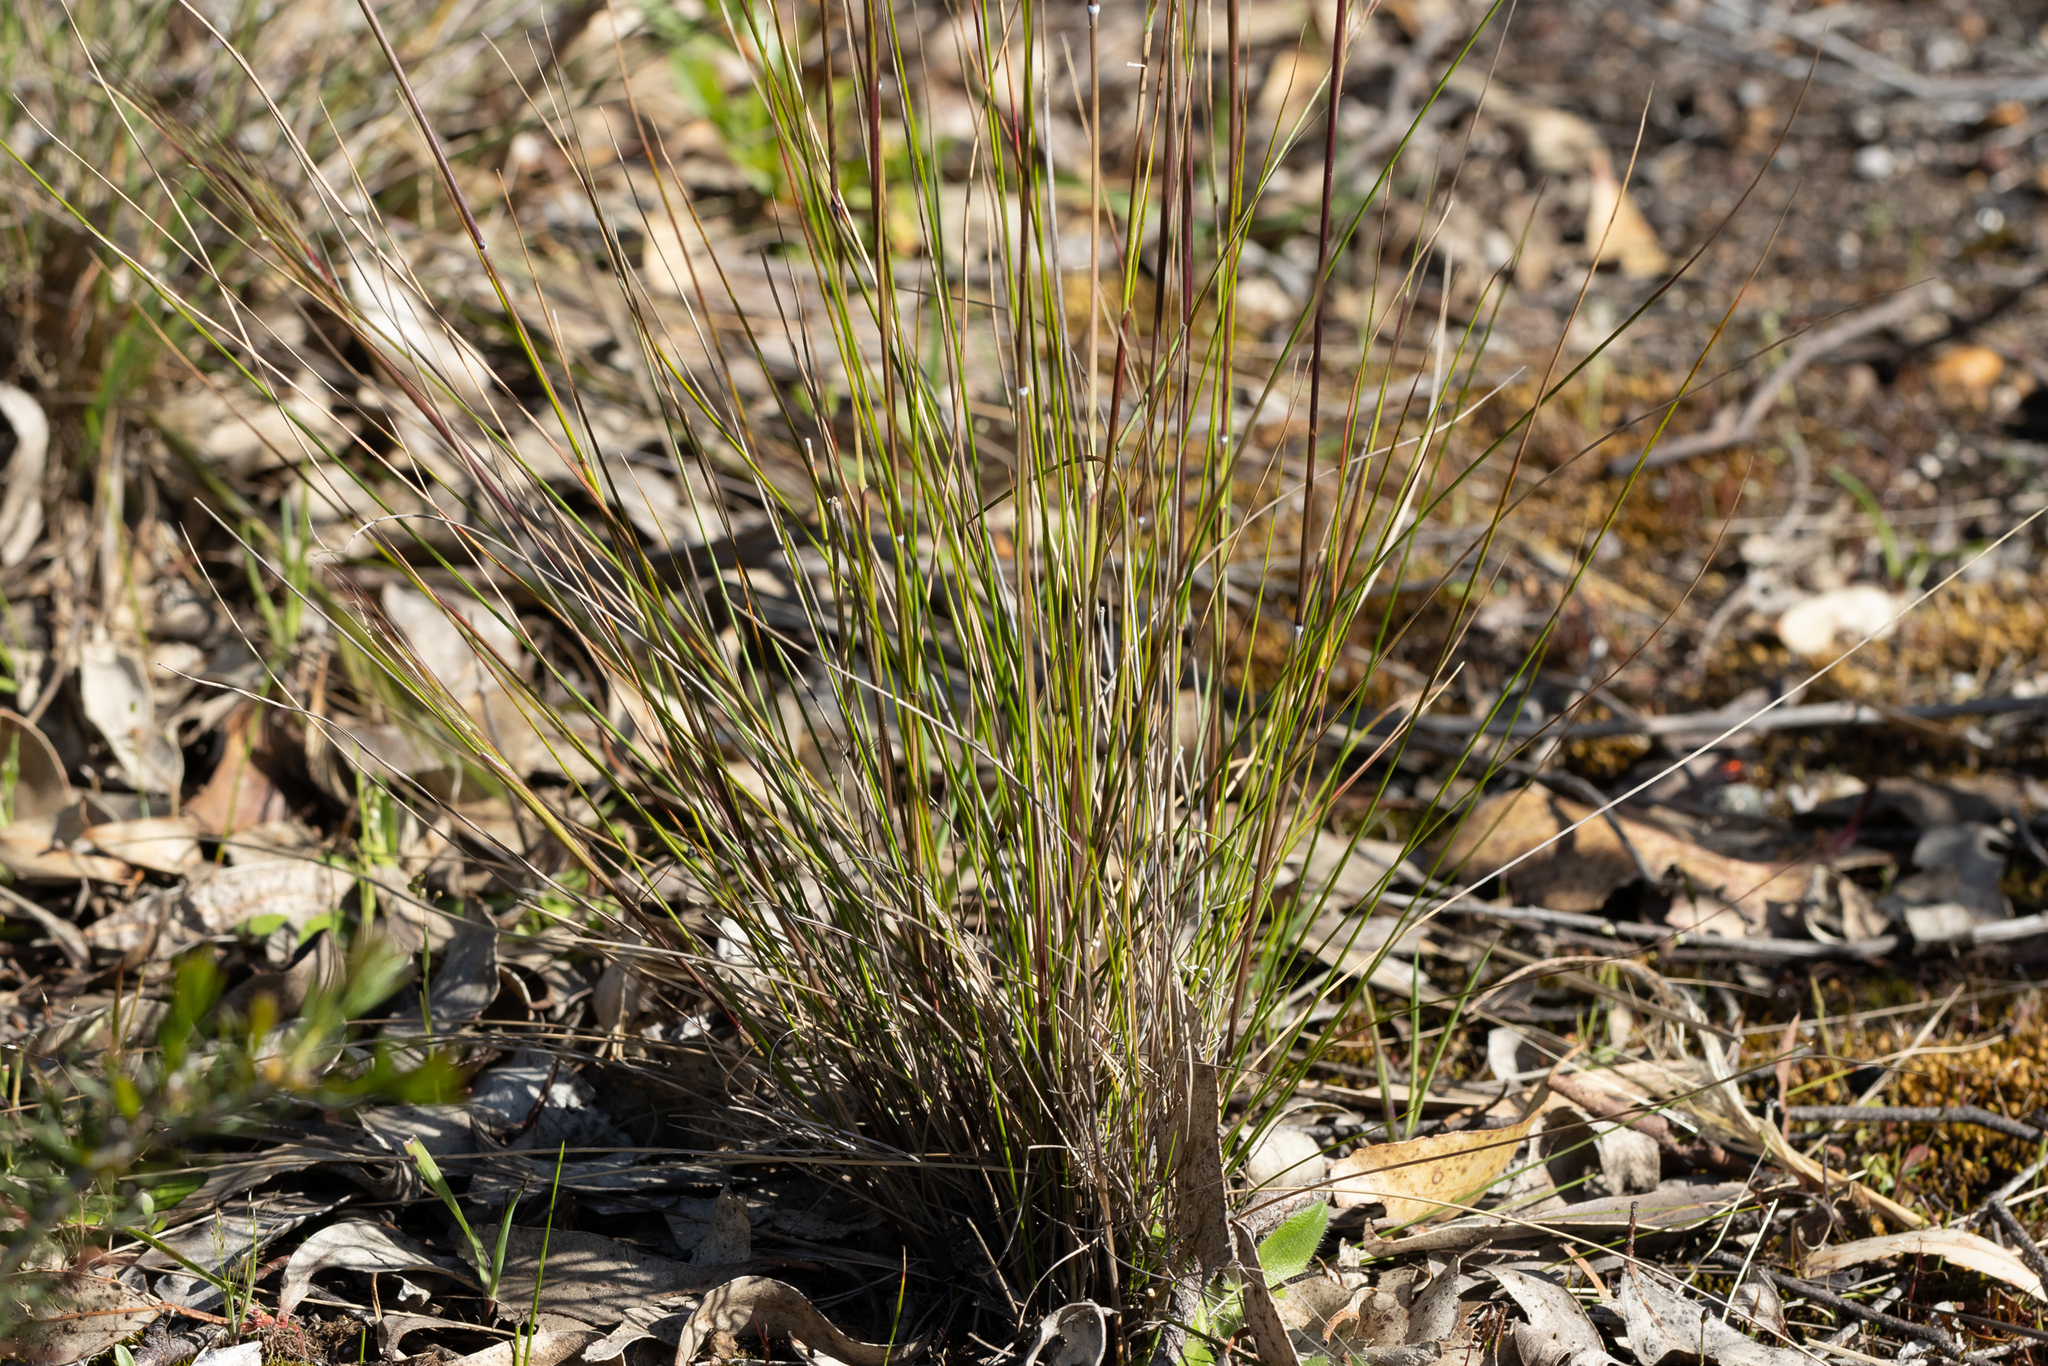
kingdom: Plantae
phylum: Tracheophyta
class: Liliopsida
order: Poales
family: Poaceae
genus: Austrostipa
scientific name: Austrostipa semibarbata
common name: Fibrous spear grass
